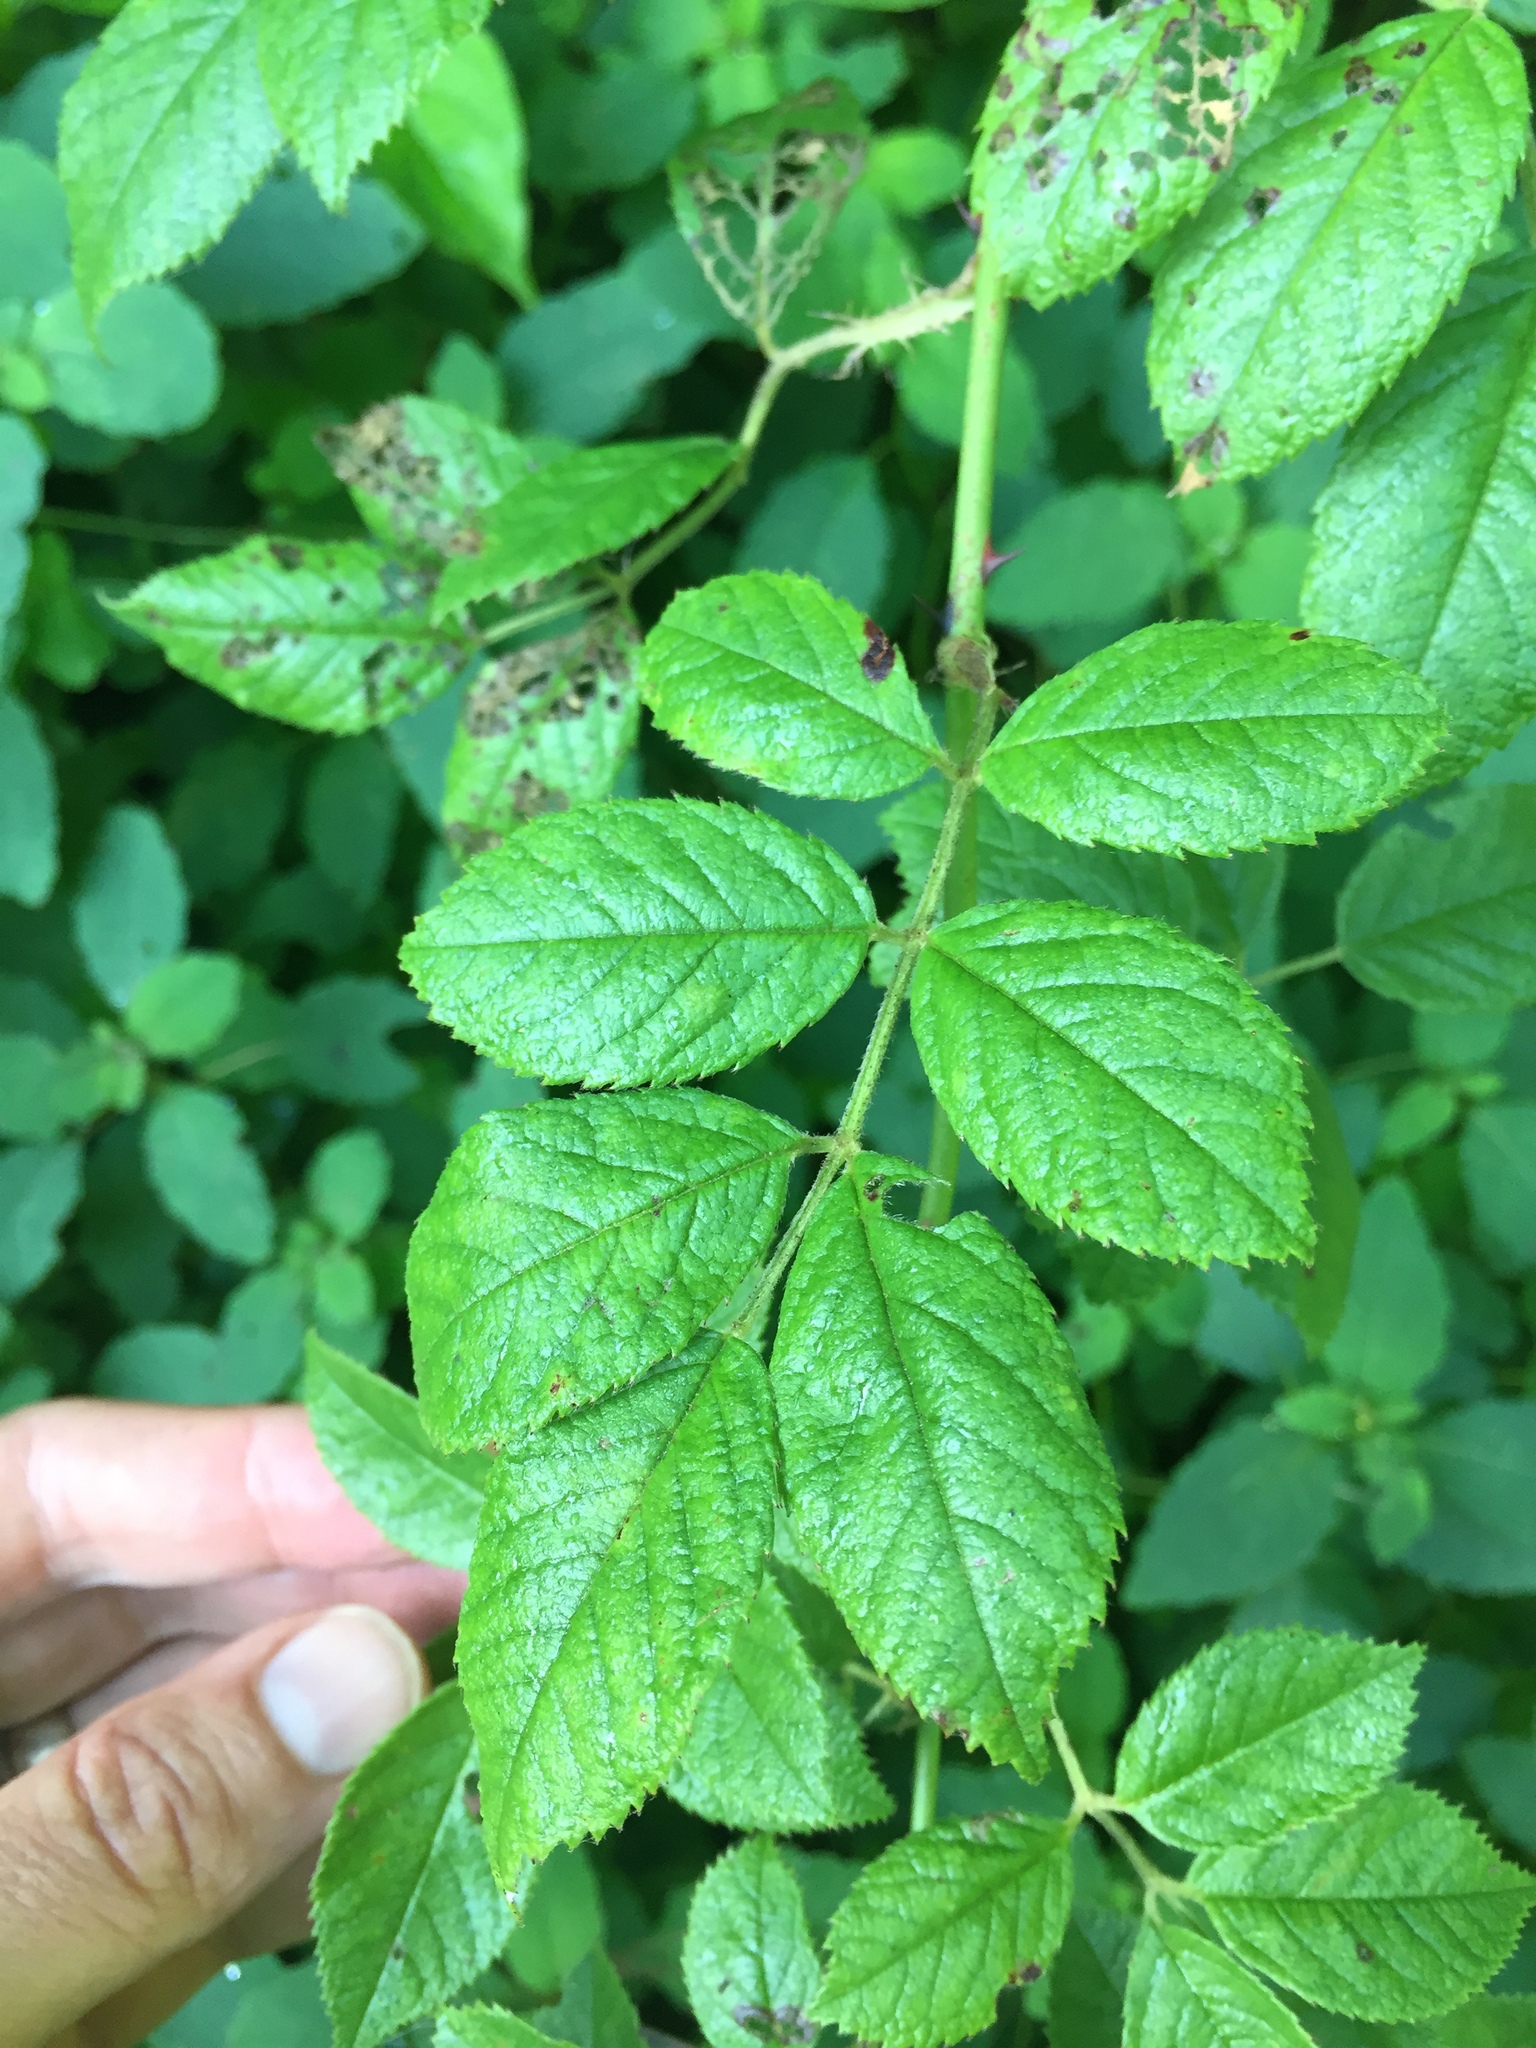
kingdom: Plantae
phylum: Tracheophyta
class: Magnoliopsida
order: Rosales
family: Rosaceae
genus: Rosa
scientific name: Rosa multiflora
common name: Multiflora rose
